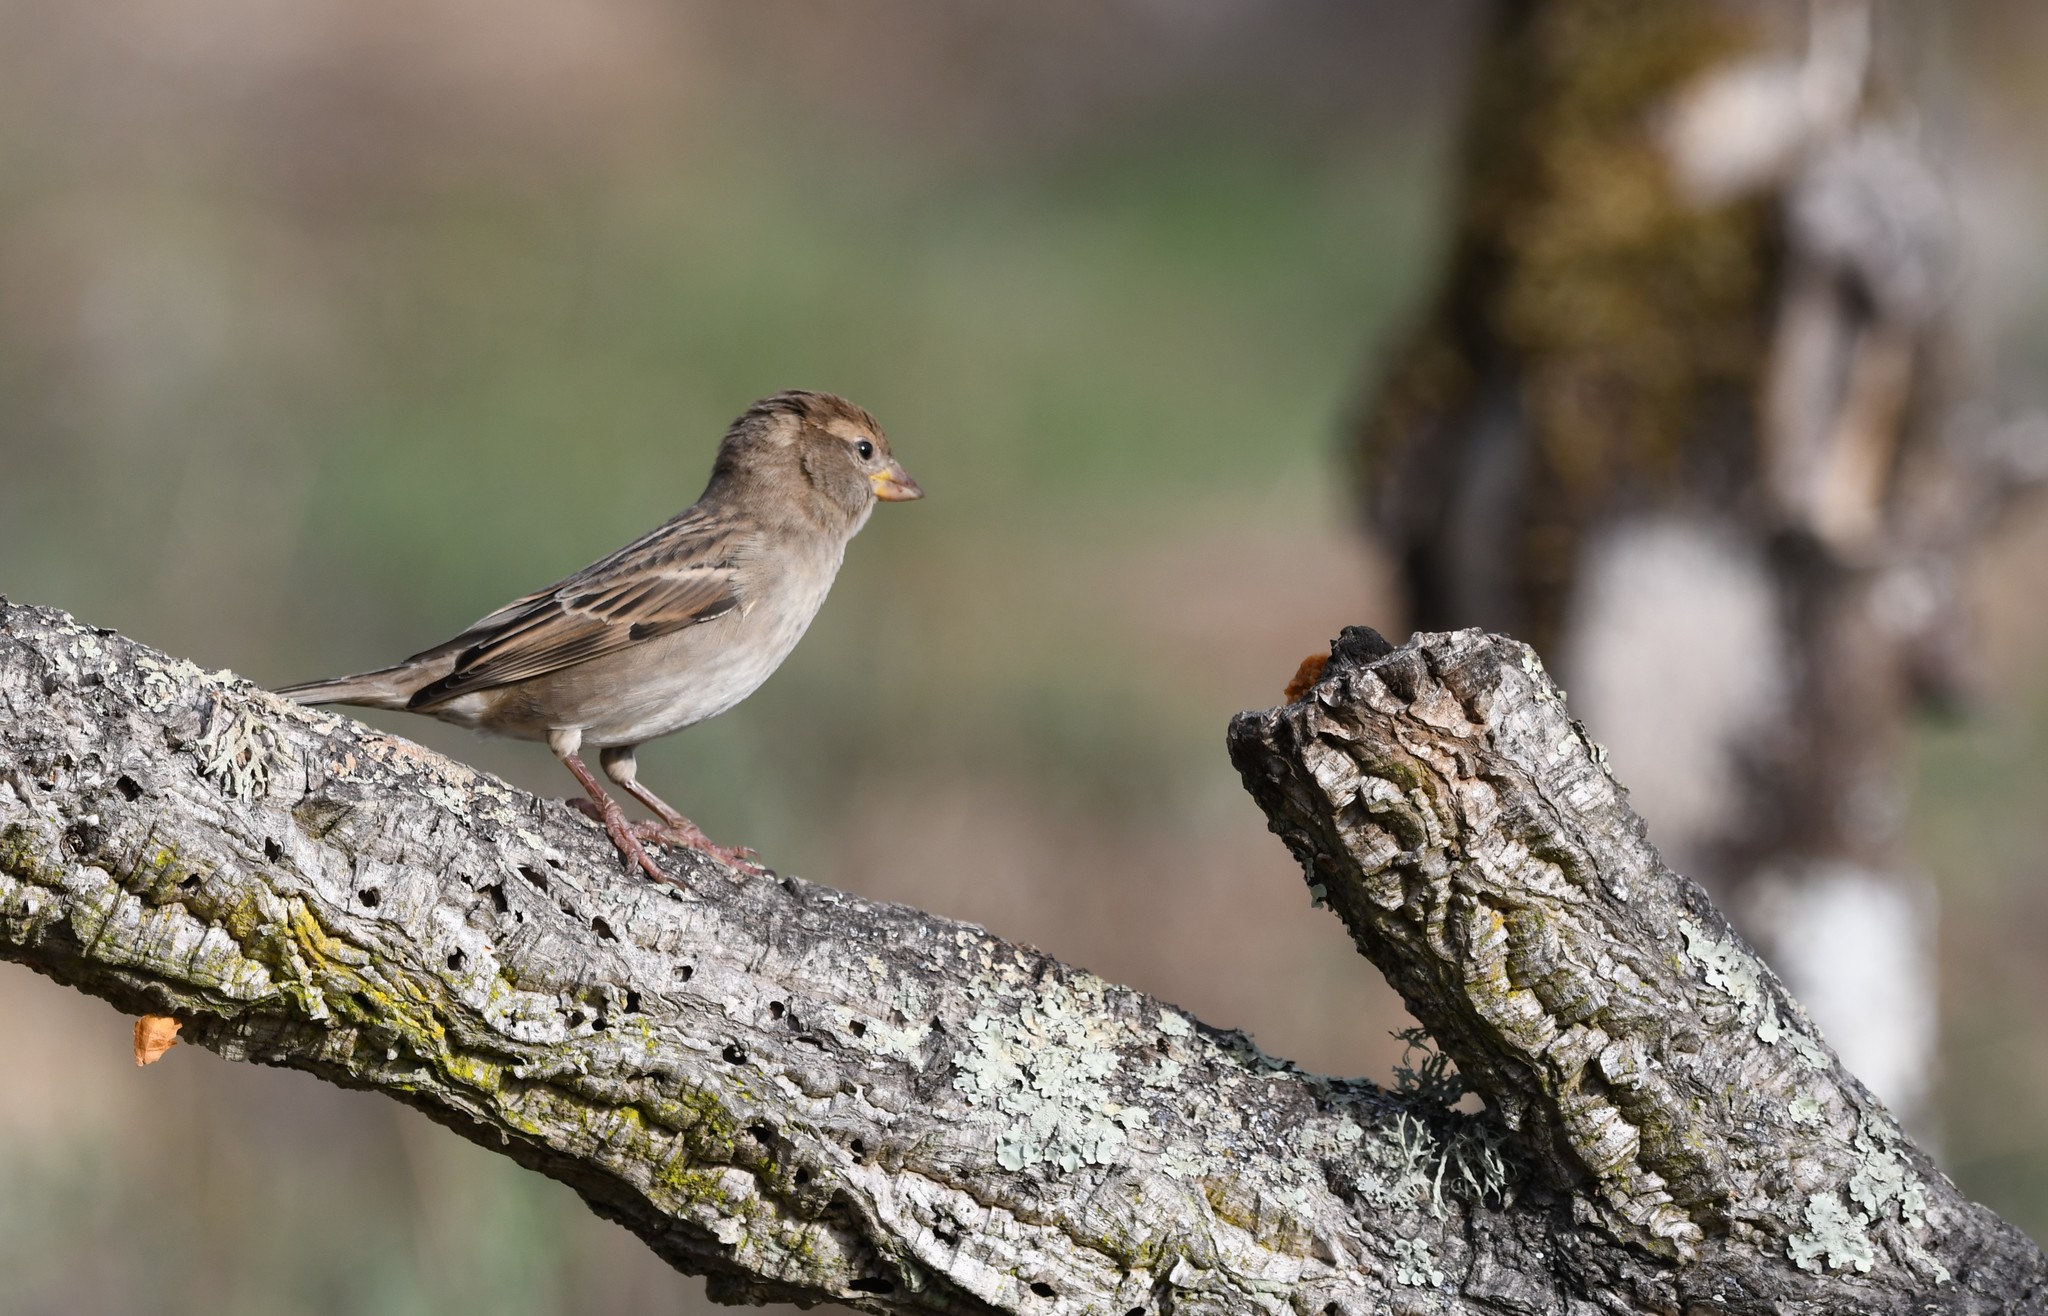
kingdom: Animalia
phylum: Chordata
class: Aves
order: Passeriformes
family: Passeridae
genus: Passer
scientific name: Passer domesticus
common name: House sparrow
